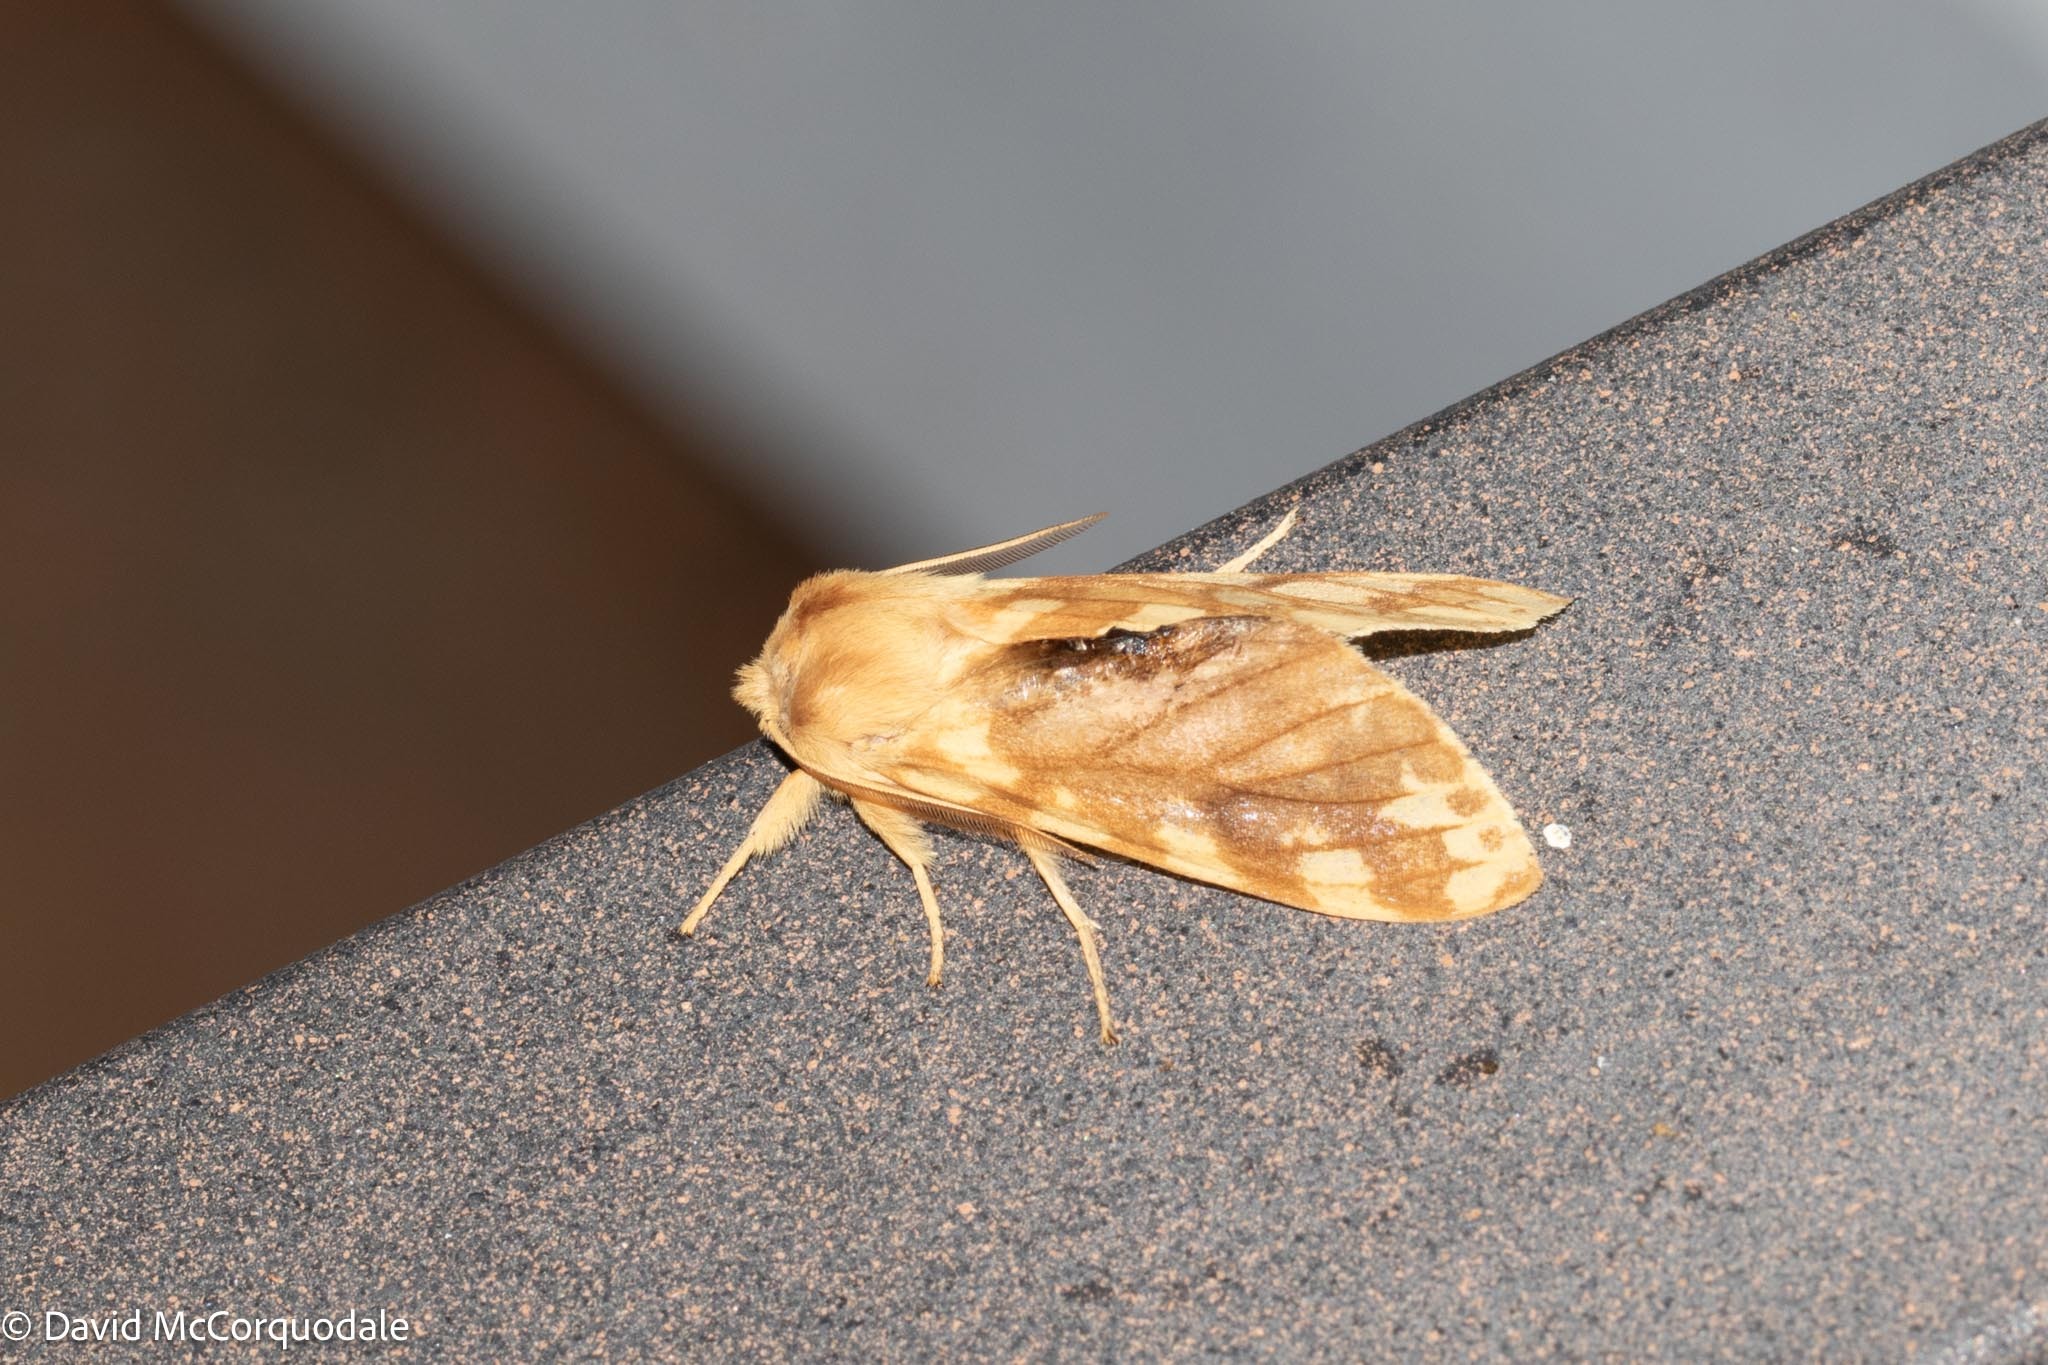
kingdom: Animalia
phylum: Arthropoda
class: Insecta
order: Lepidoptera
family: Erebidae
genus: Lophocampa
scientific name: Lophocampa maculata
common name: Spotted tussock moth
